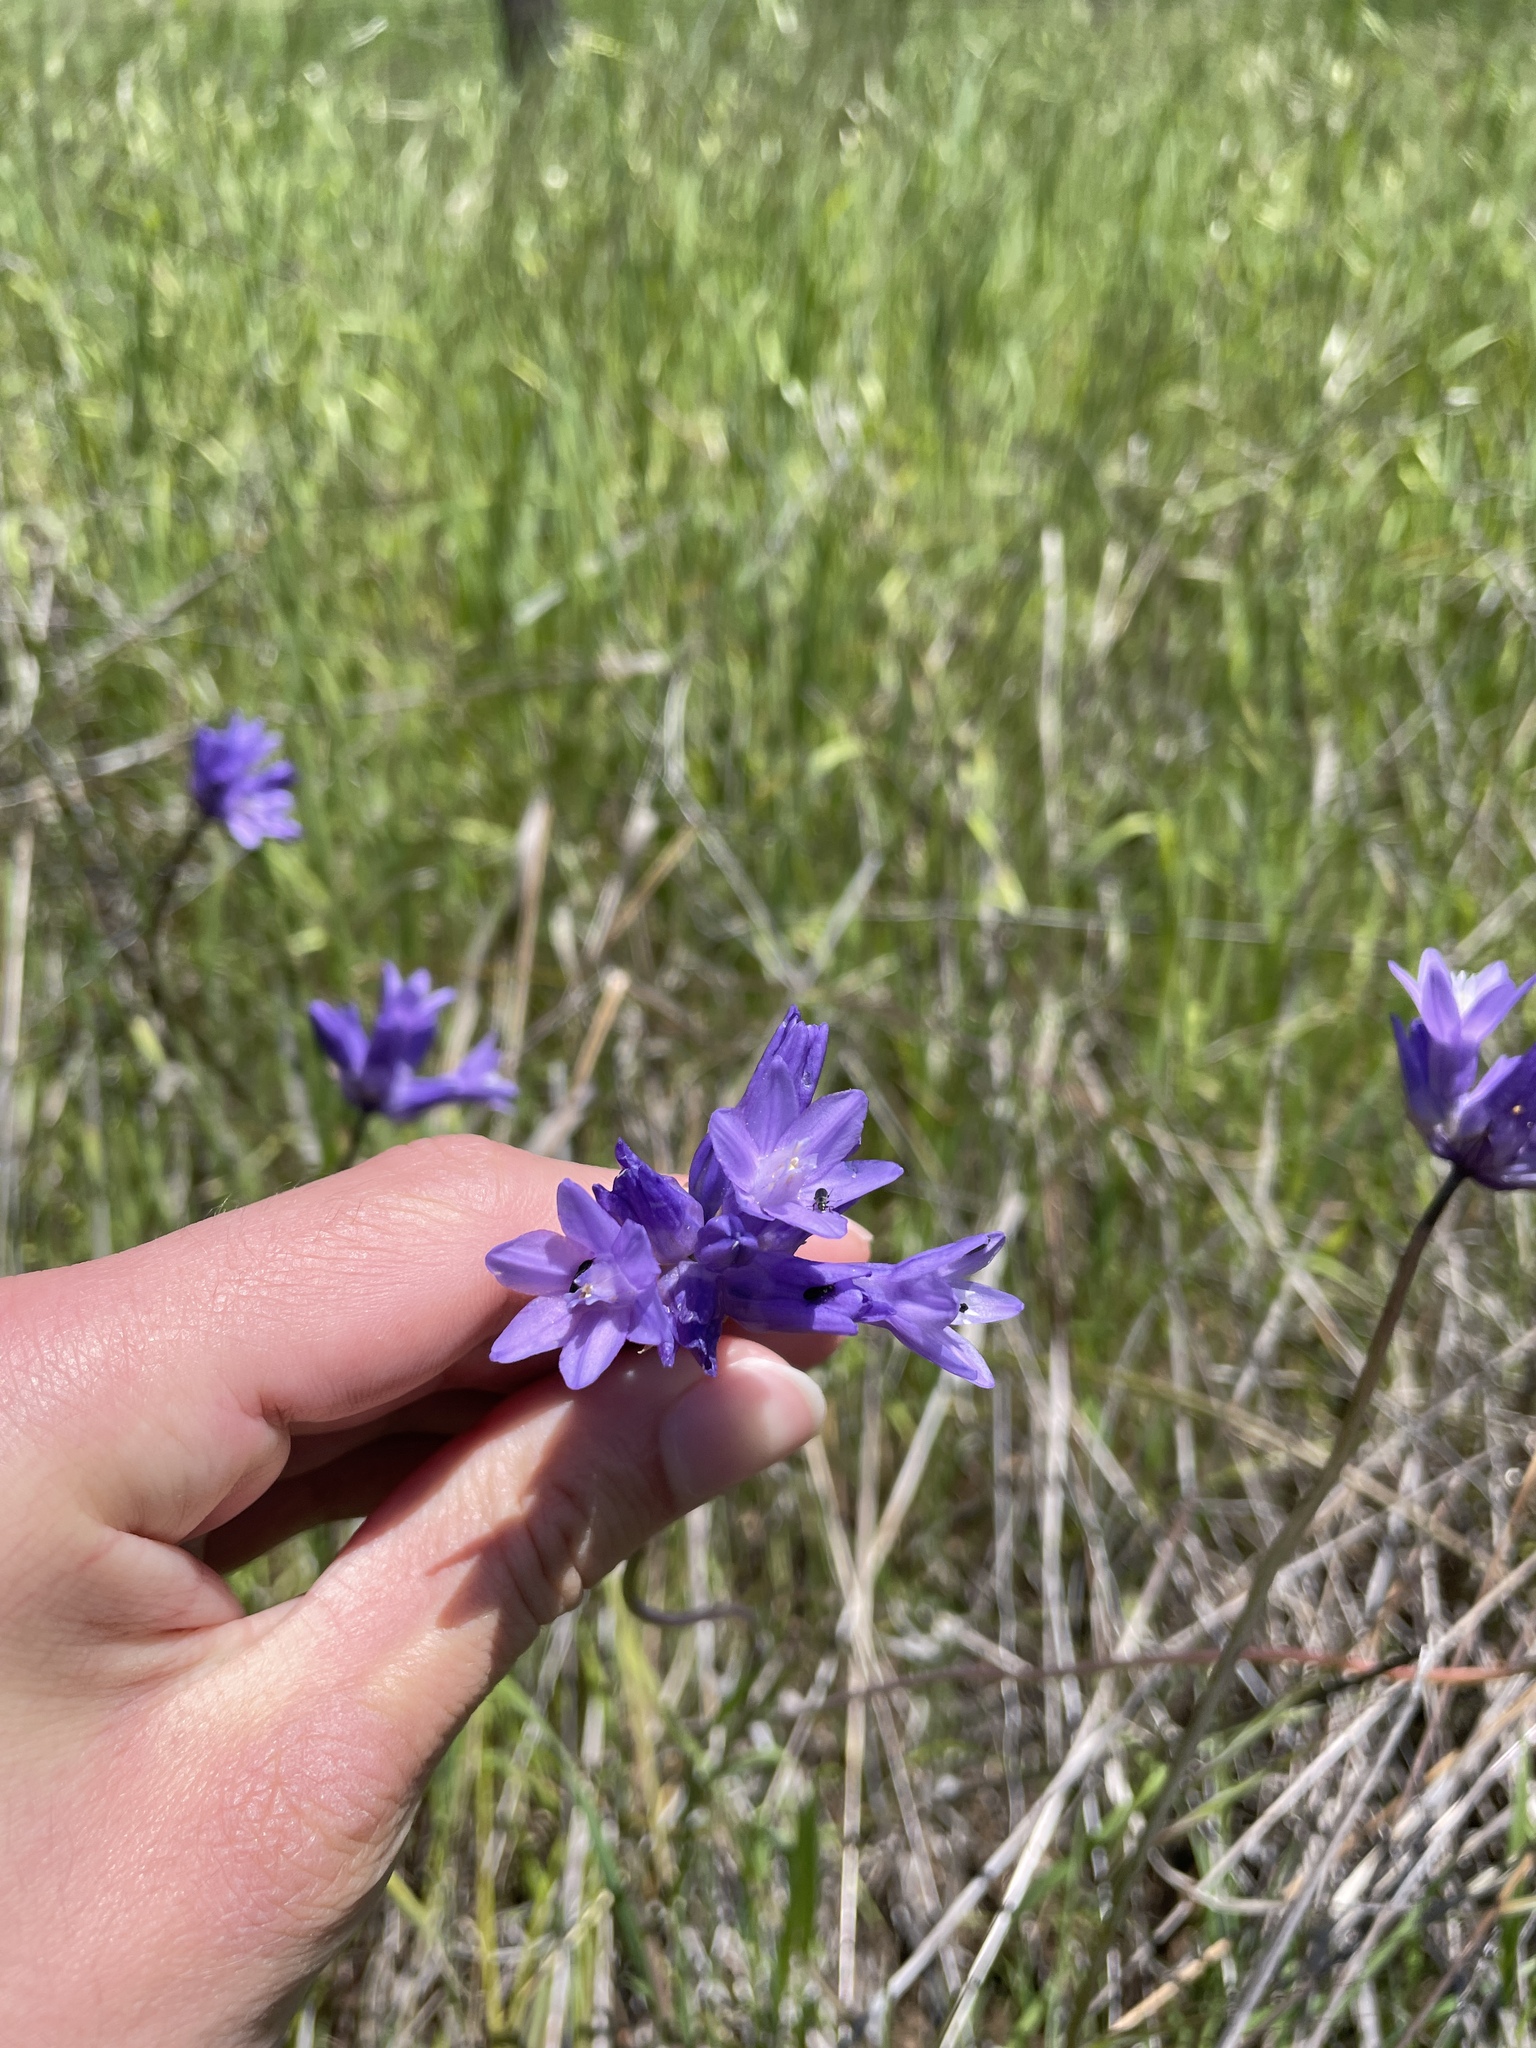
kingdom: Plantae
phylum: Tracheophyta
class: Liliopsida
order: Asparagales
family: Asparagaceae
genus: Dipterostemon
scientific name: Dipterostemon capitatus
